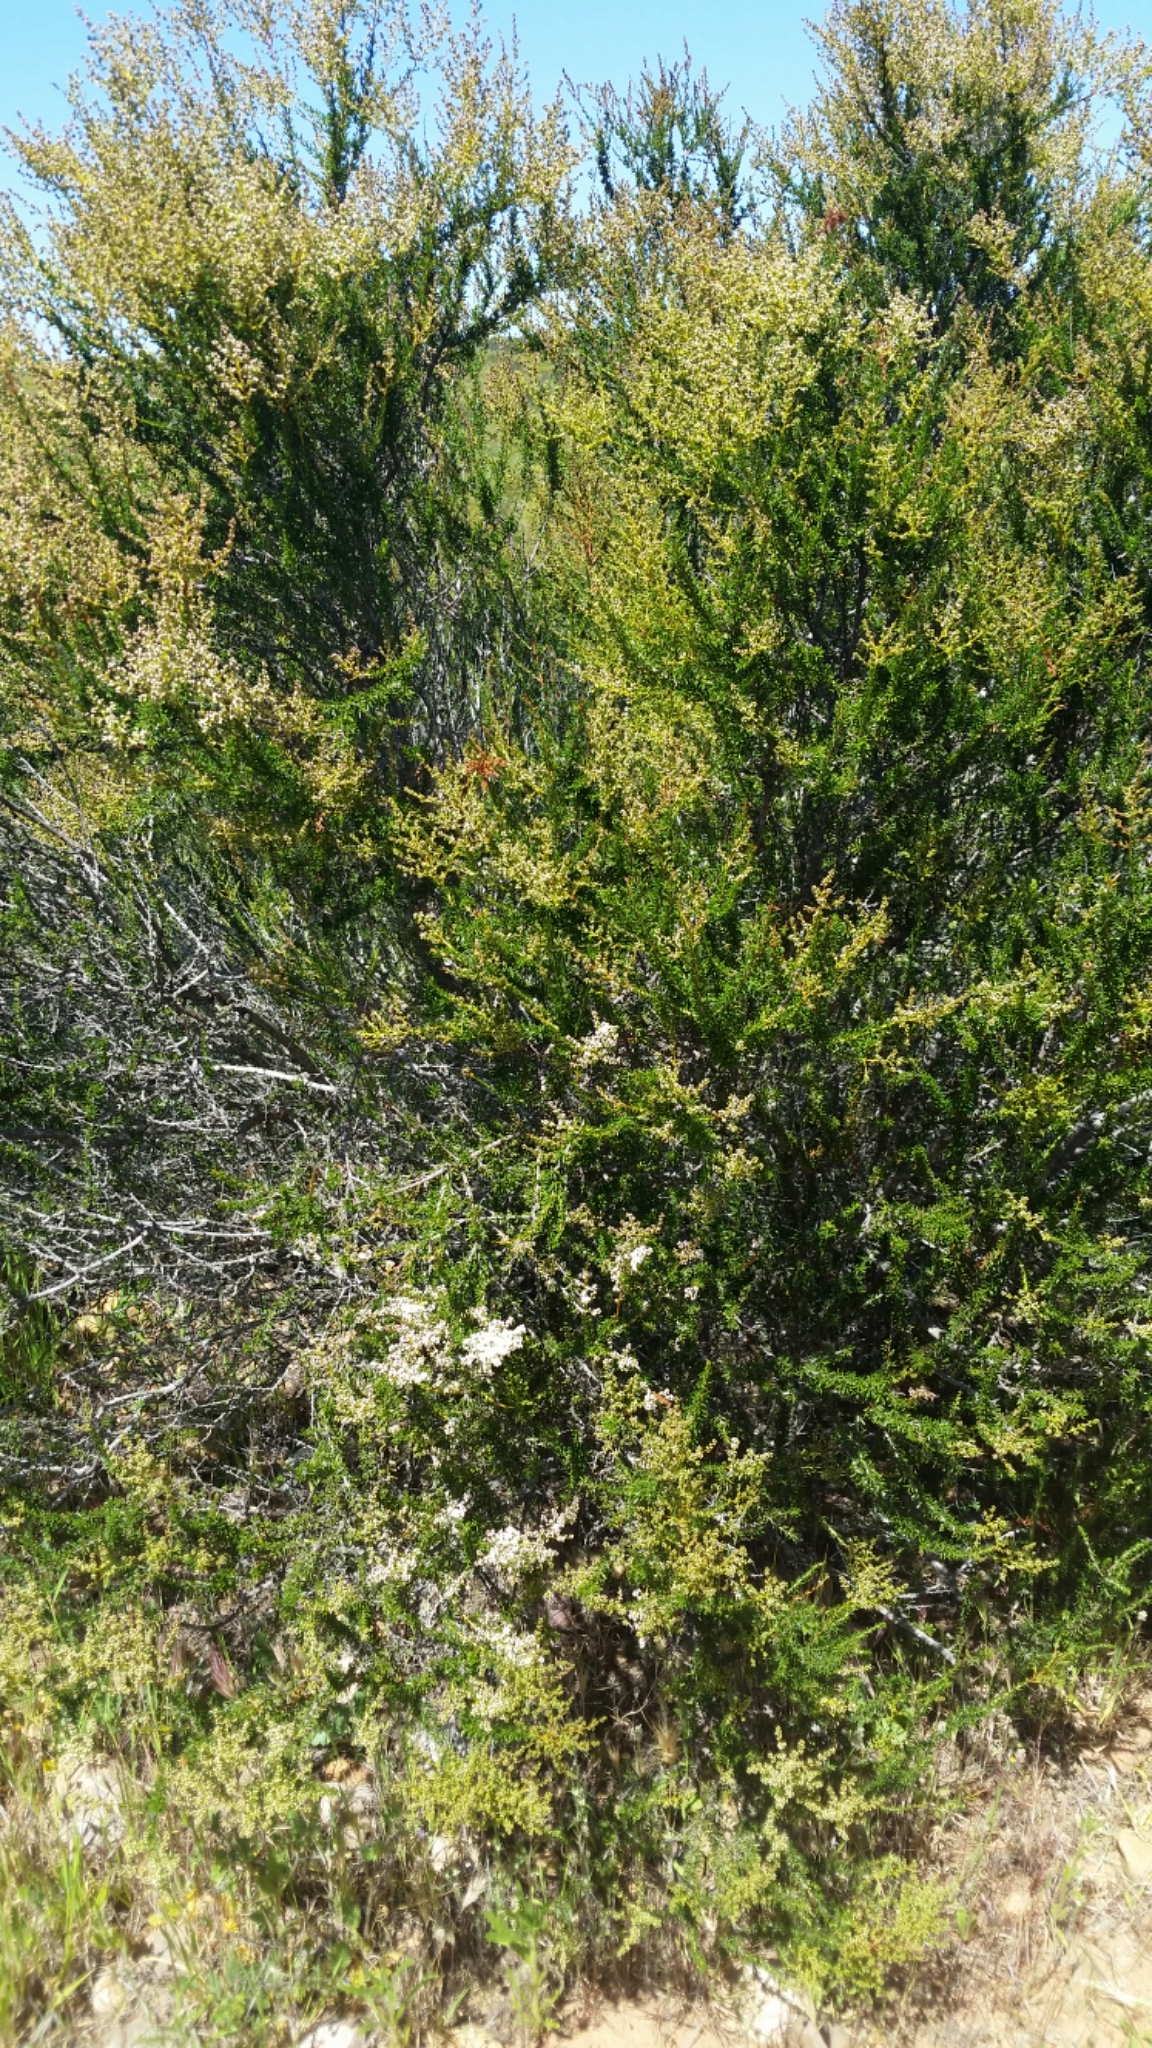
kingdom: Plantae
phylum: Tracheophyta
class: Magnoliopsida
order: Rosales
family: Rosaceae
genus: Adenostoma
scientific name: Adenostoma fasciculatum
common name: Chamise
